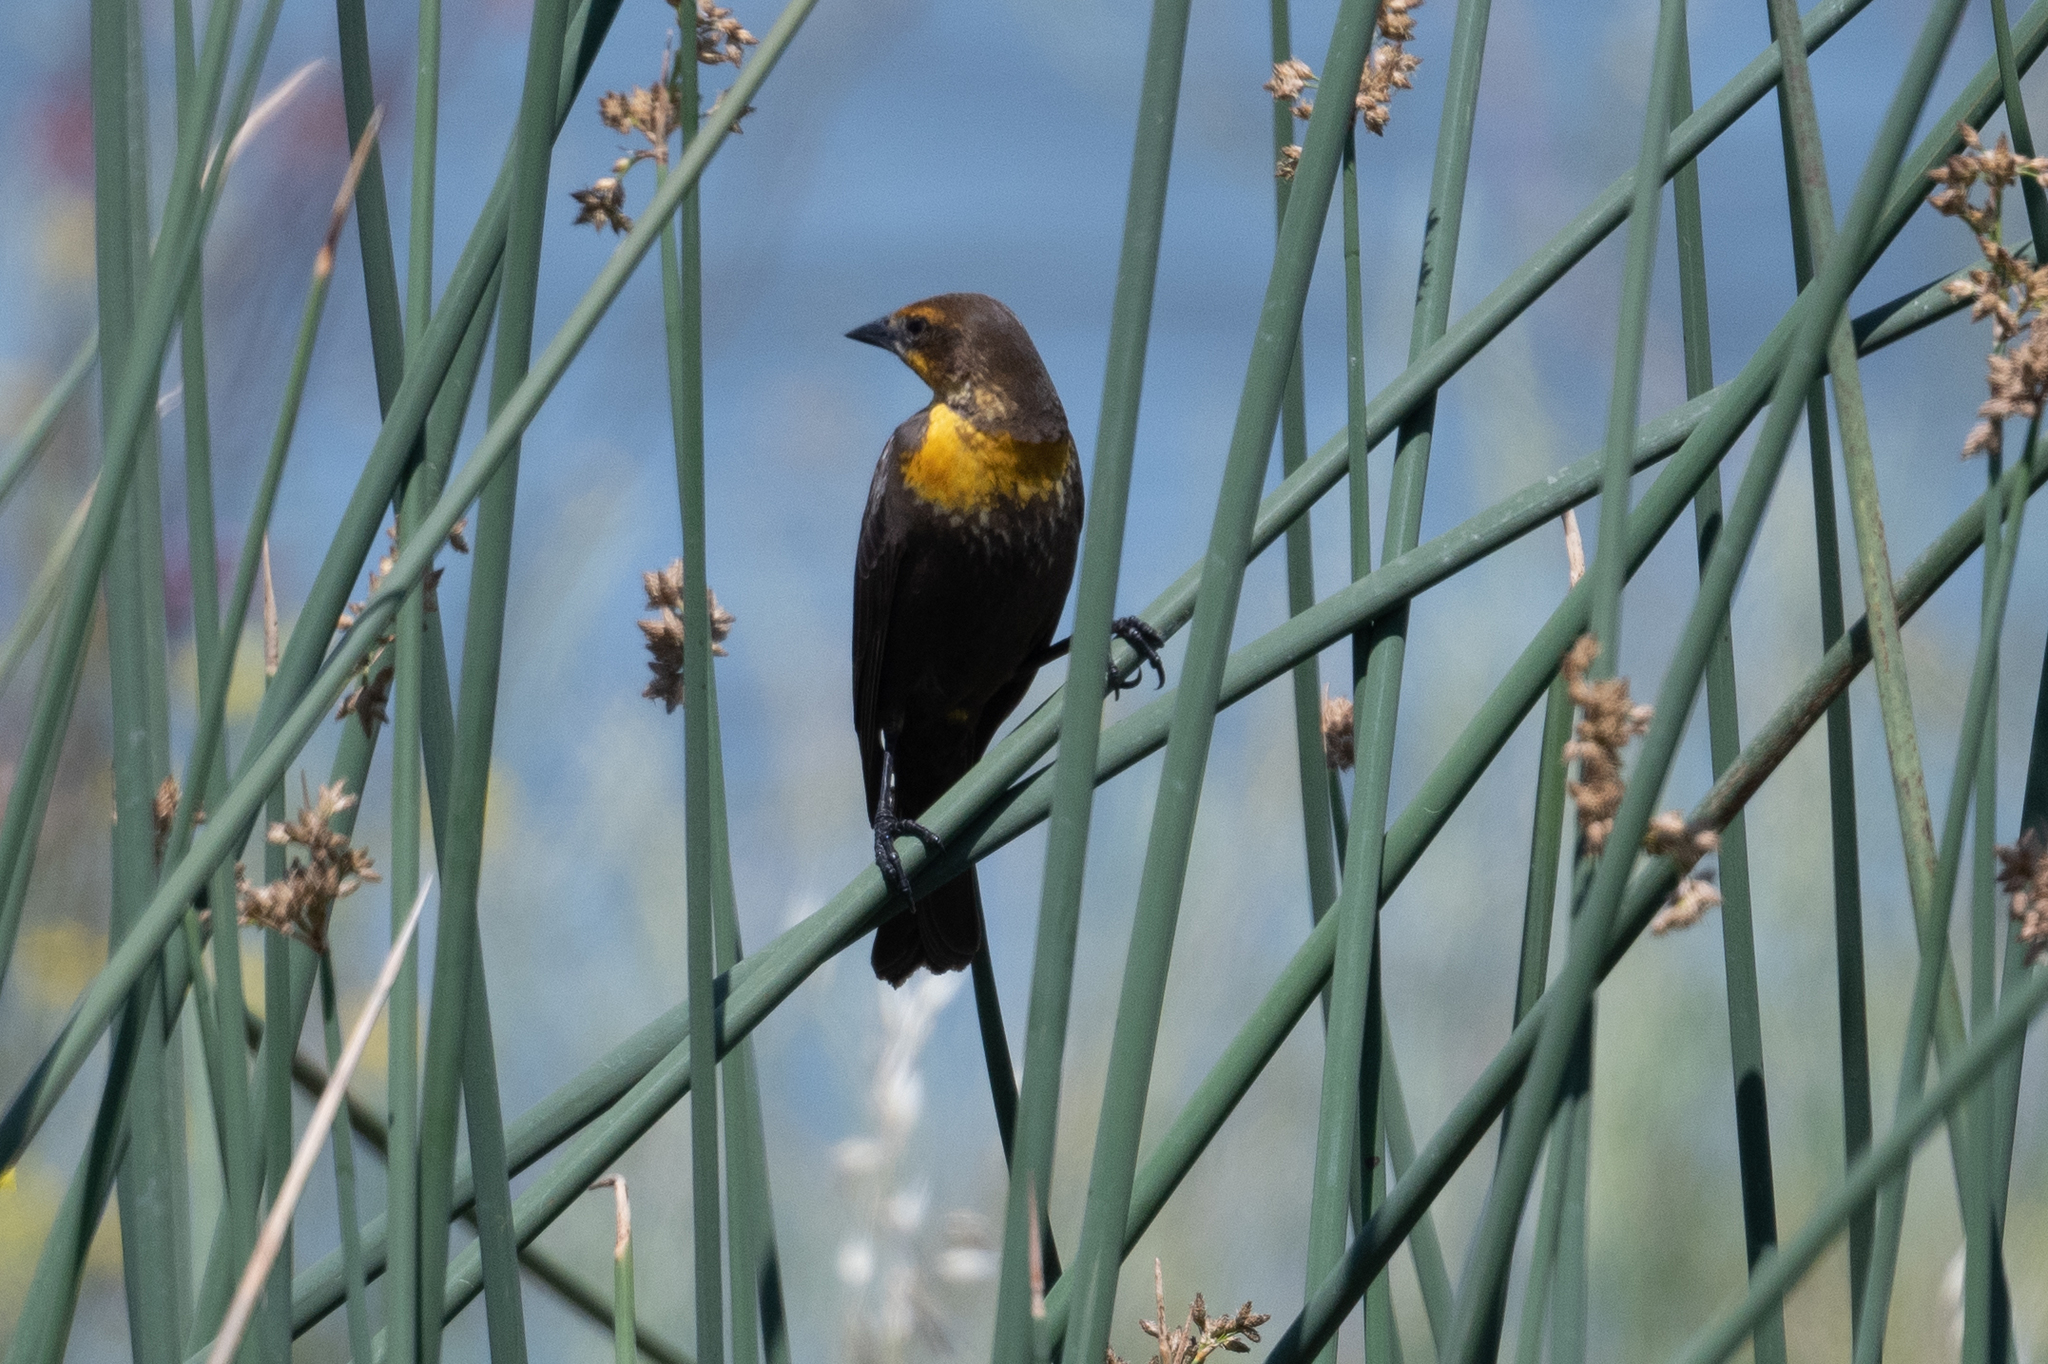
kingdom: Animalia
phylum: Chordata
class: Aves
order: Passeriformes
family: Icteridae
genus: Xanthocephalus
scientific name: Xanthocephalus xanthocephalus
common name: Yellow-headed blackbird
